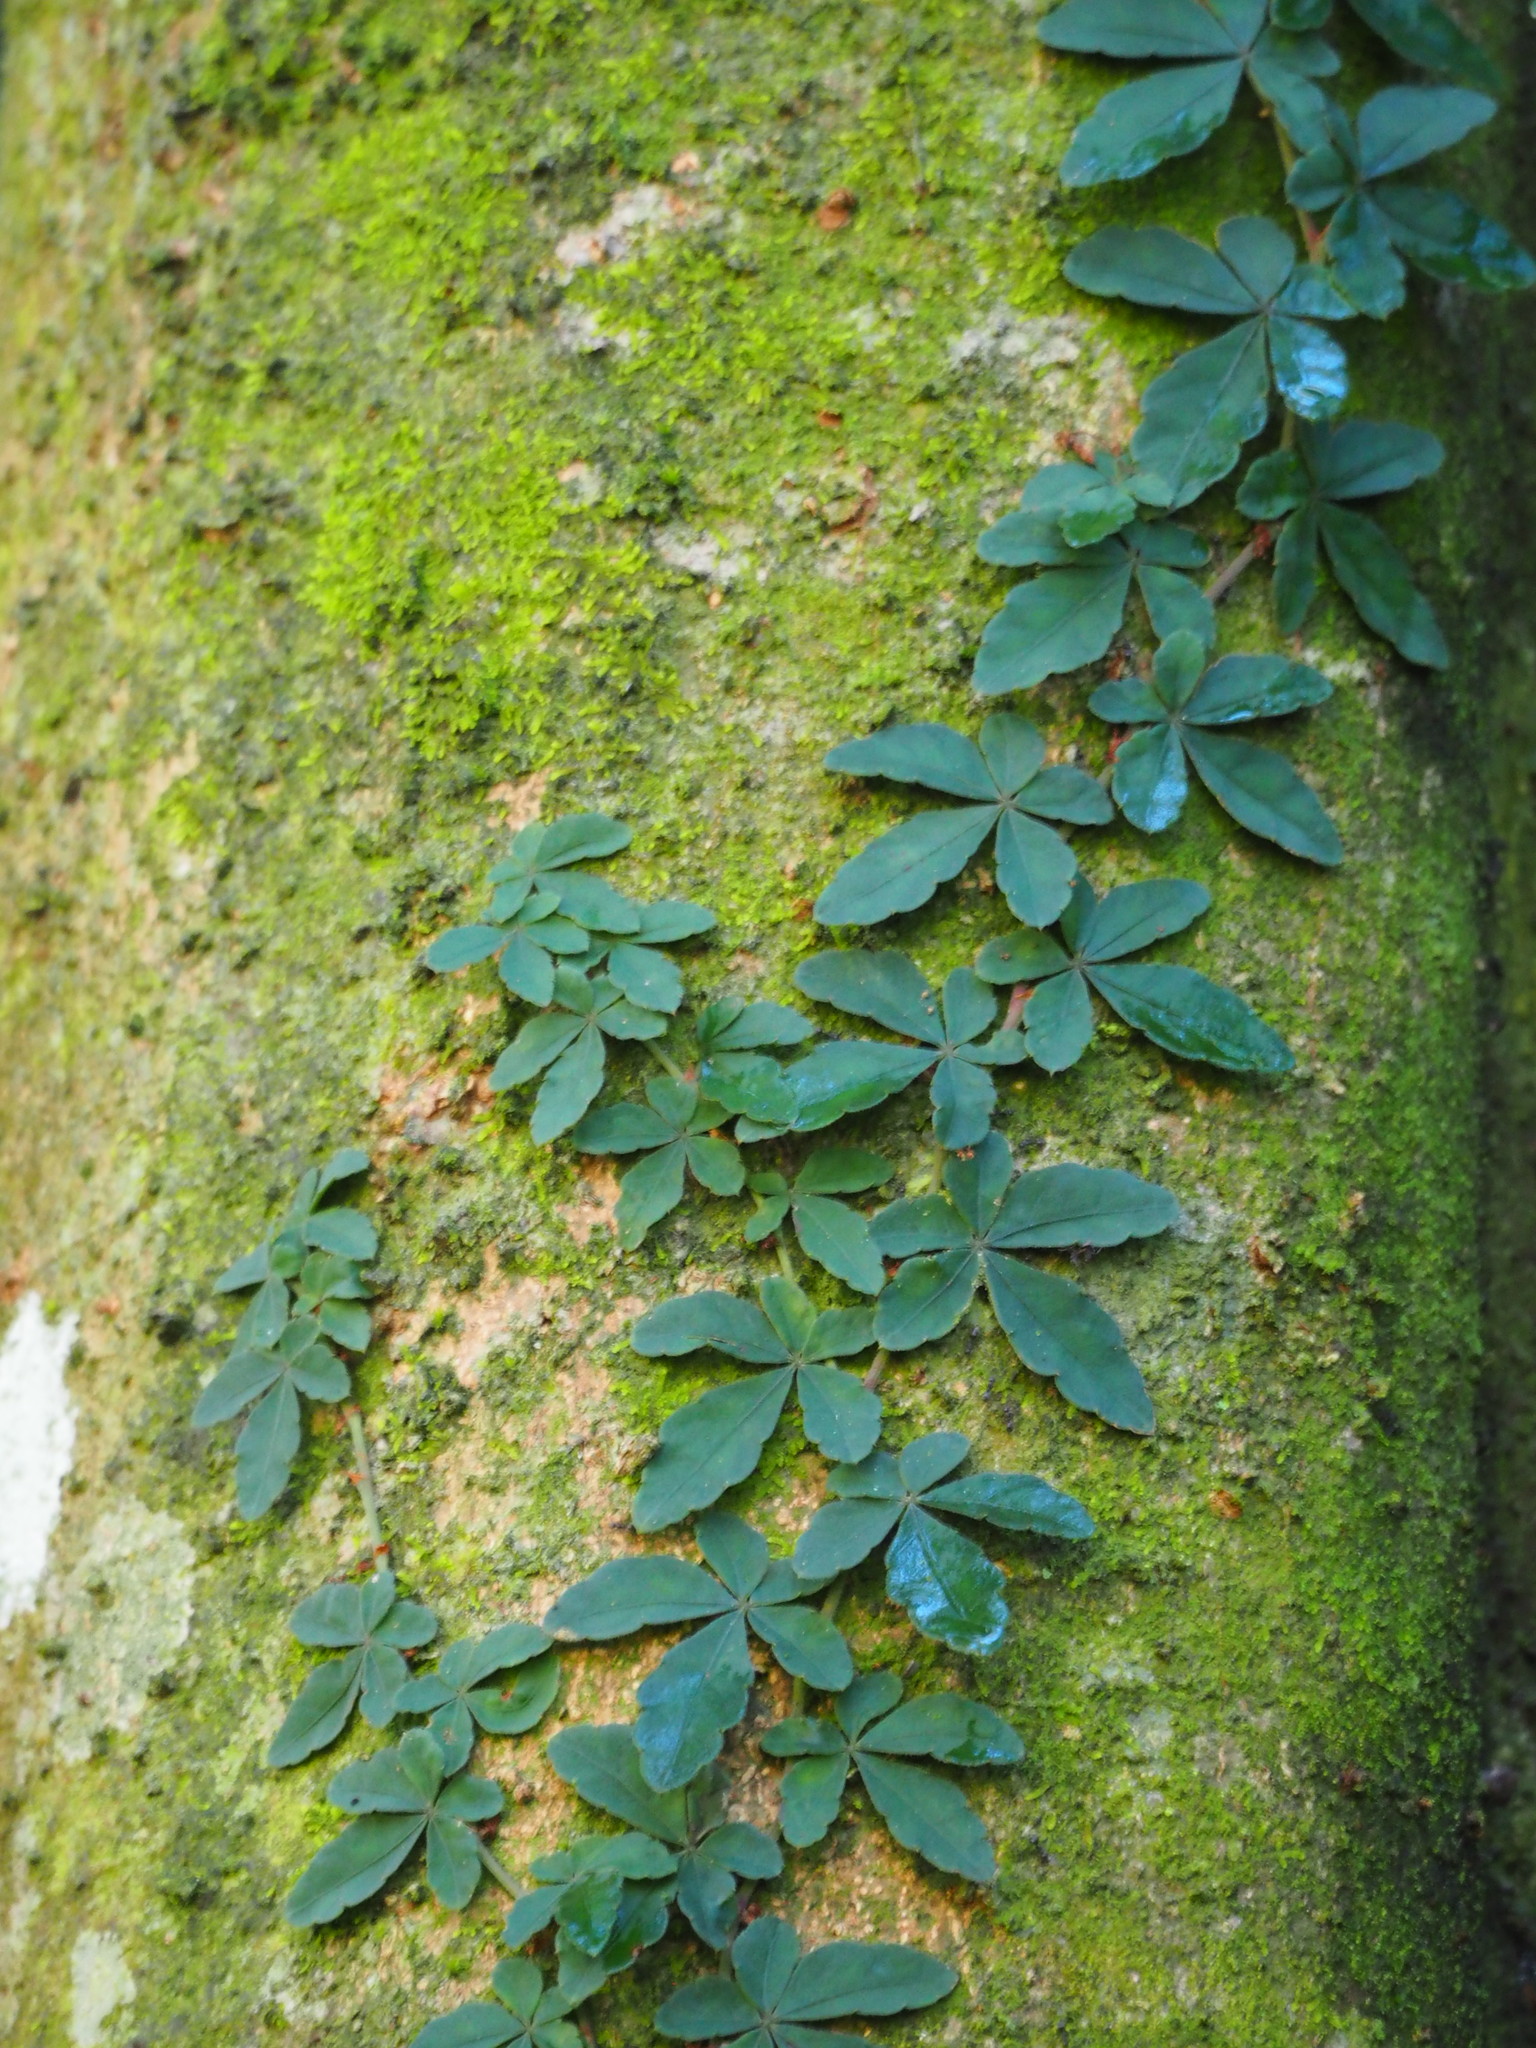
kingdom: Plantae
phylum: Tracheophyta
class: Magnoliopsida
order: Vitales
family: Vitaceae
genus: Tetrastigma
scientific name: Tetrastigma obtectum
